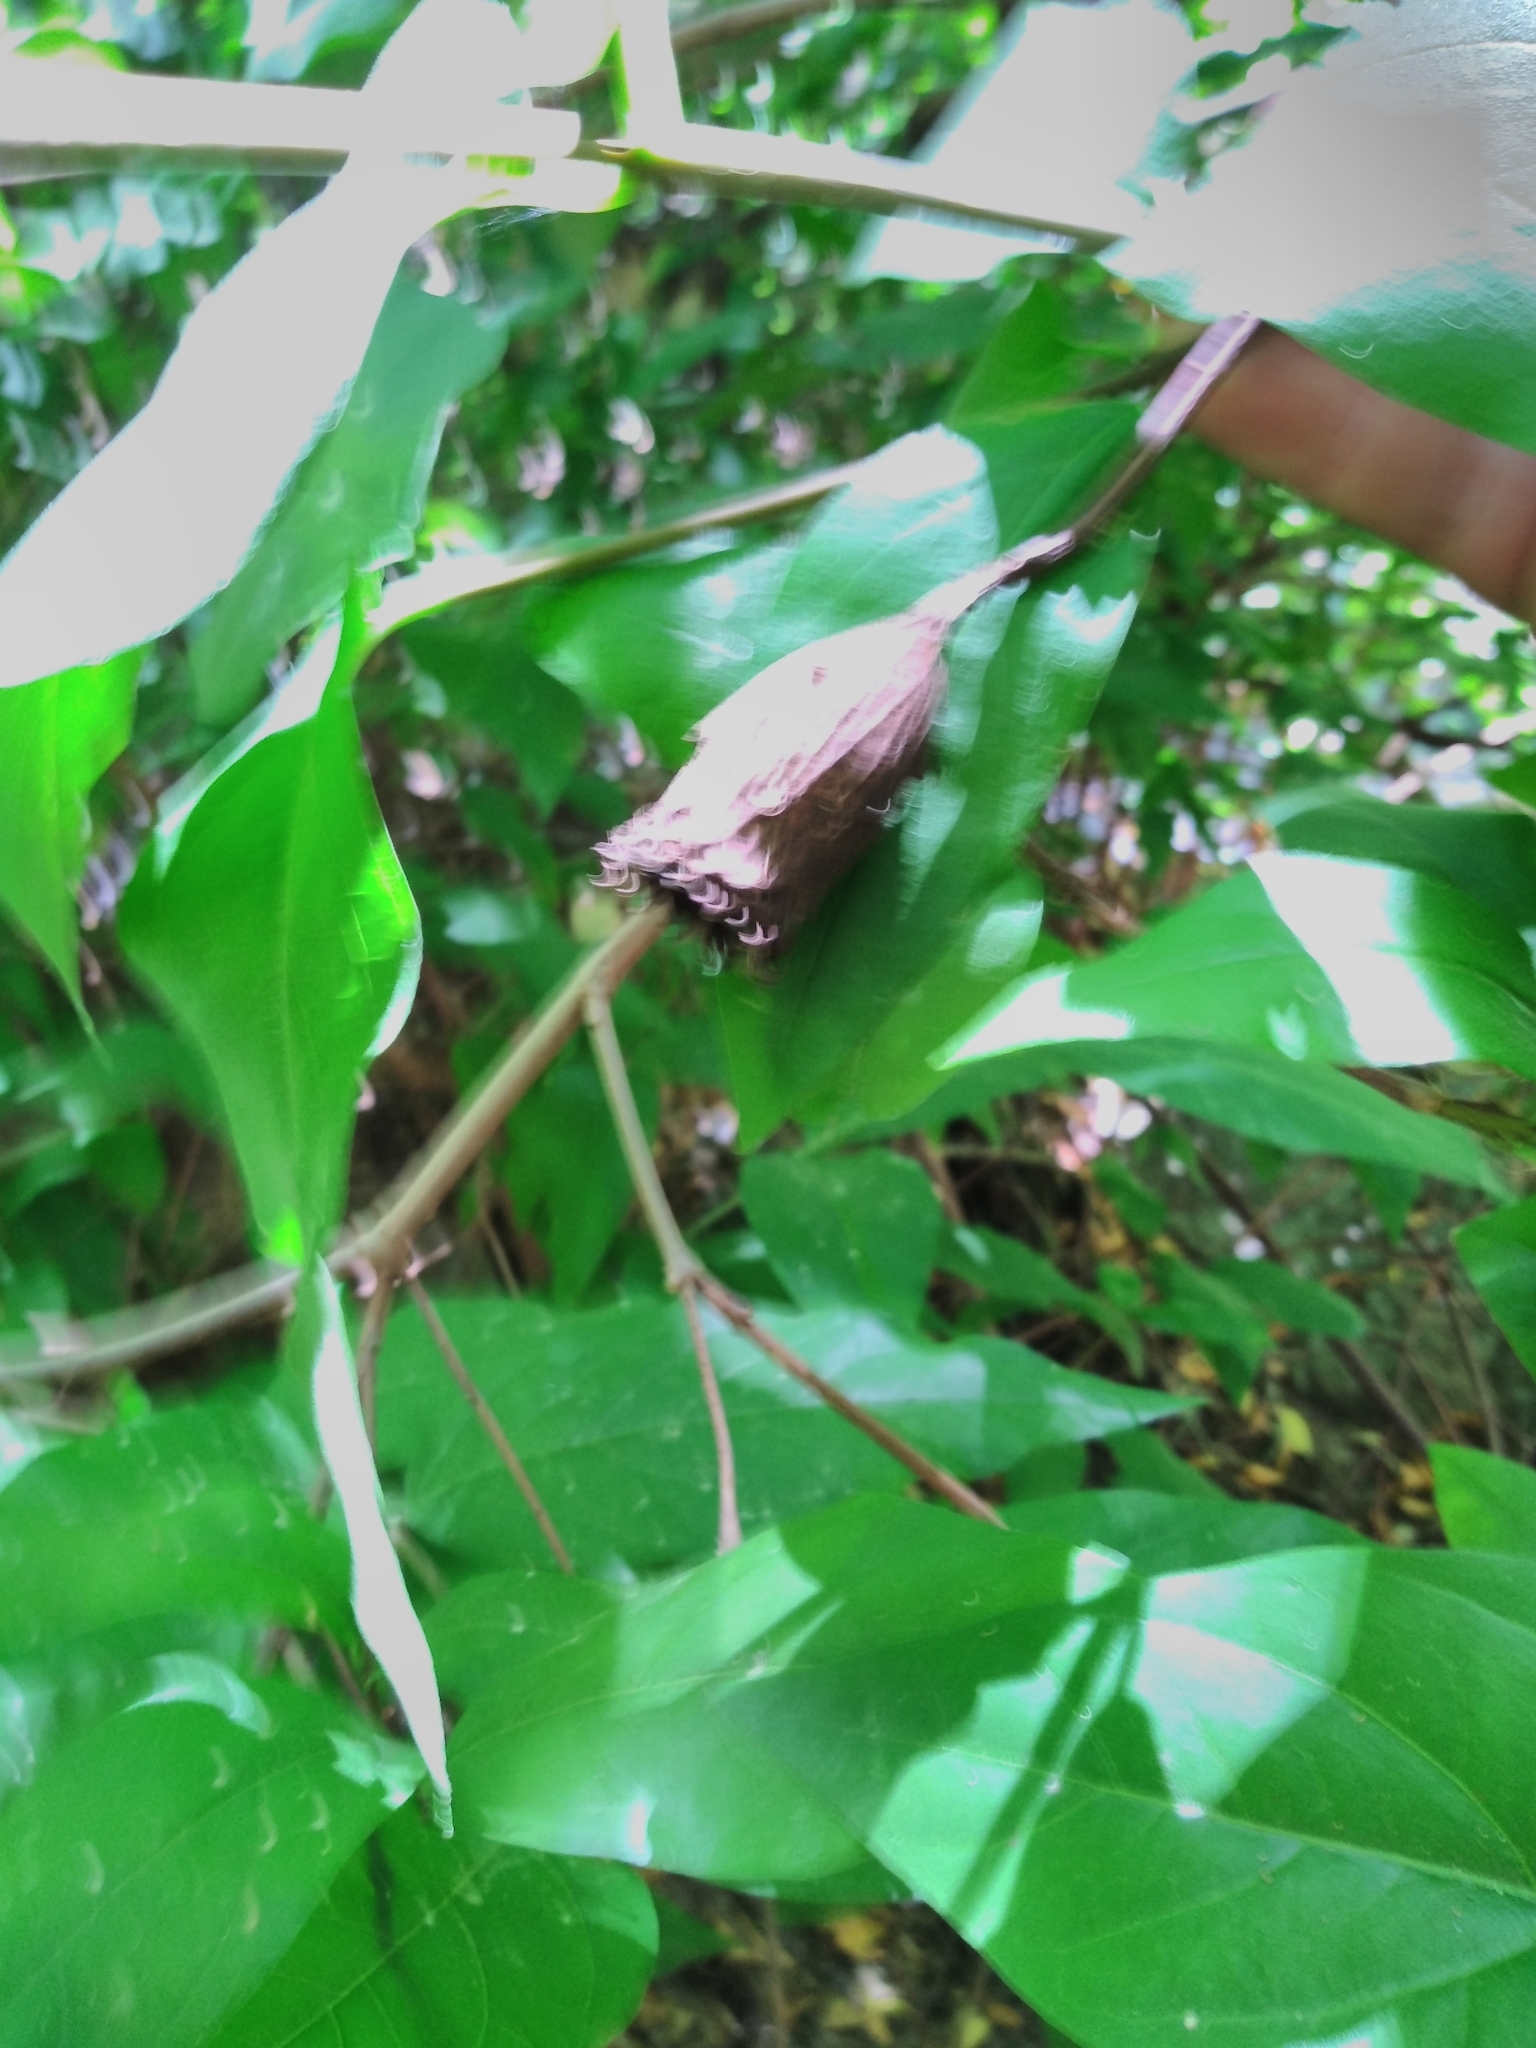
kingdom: Plantae
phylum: Tracheophyta
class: Magnoliopsida
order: Laurales
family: Calycanthaceae
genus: Calycanthus
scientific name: Calycanthus occidentalis
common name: California spicebush
